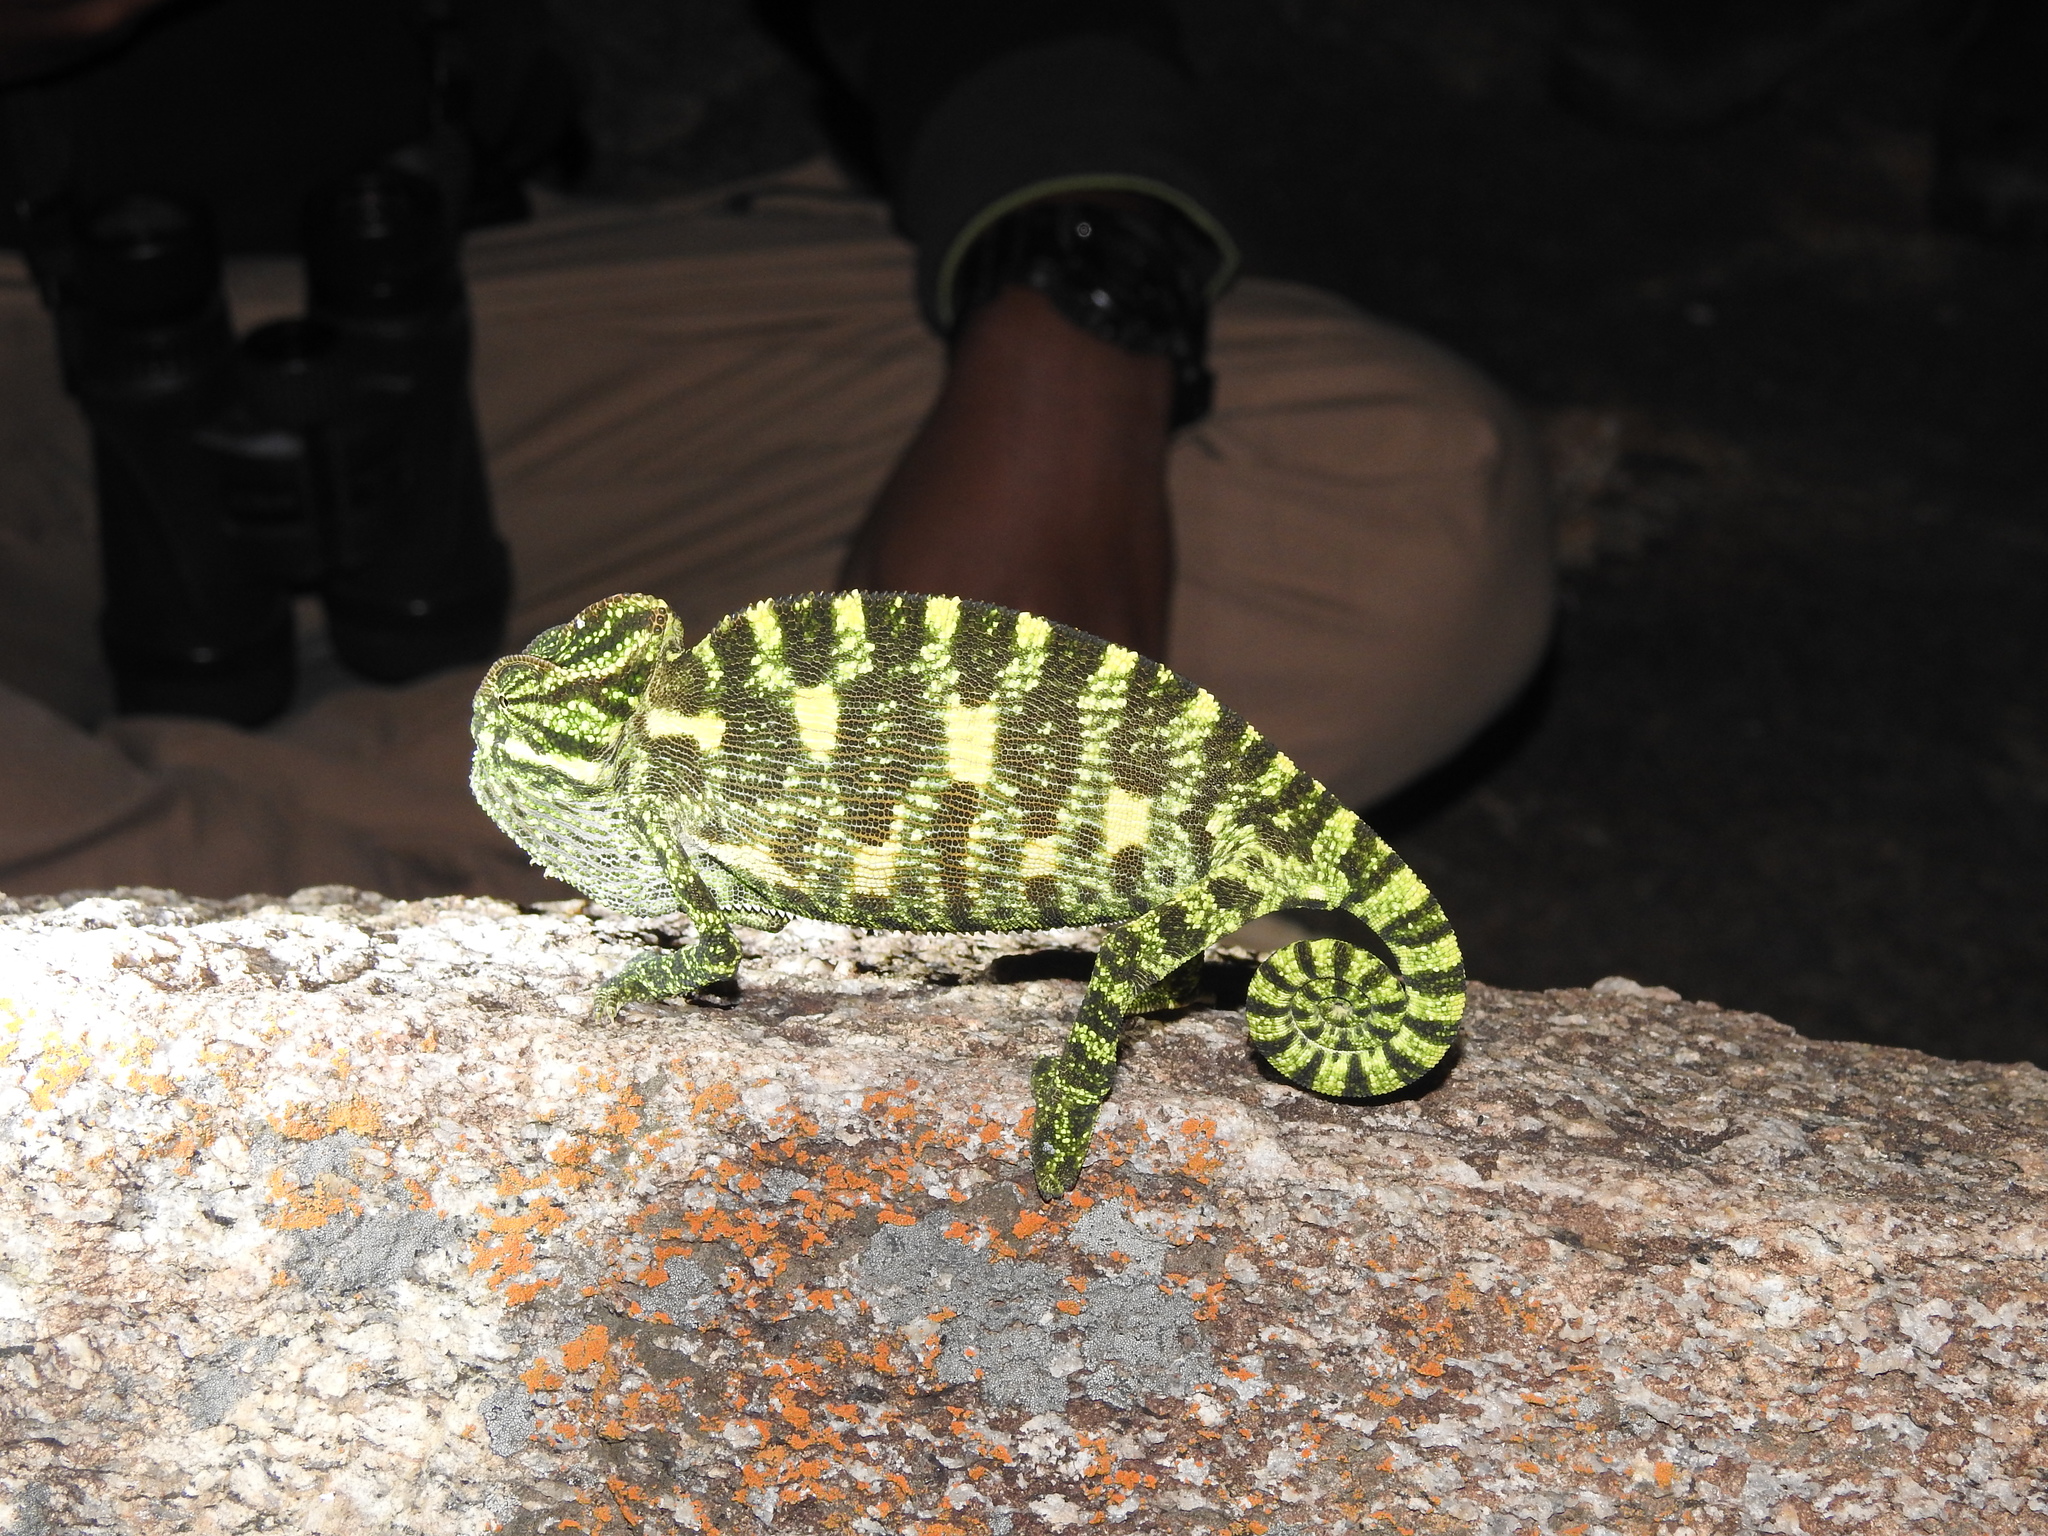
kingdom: Animalia
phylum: Chordata
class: Squamata
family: Chamaeleonidae
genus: Chamaeleo
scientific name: Chamaeleo zeylanicus
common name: Indian chameleon
